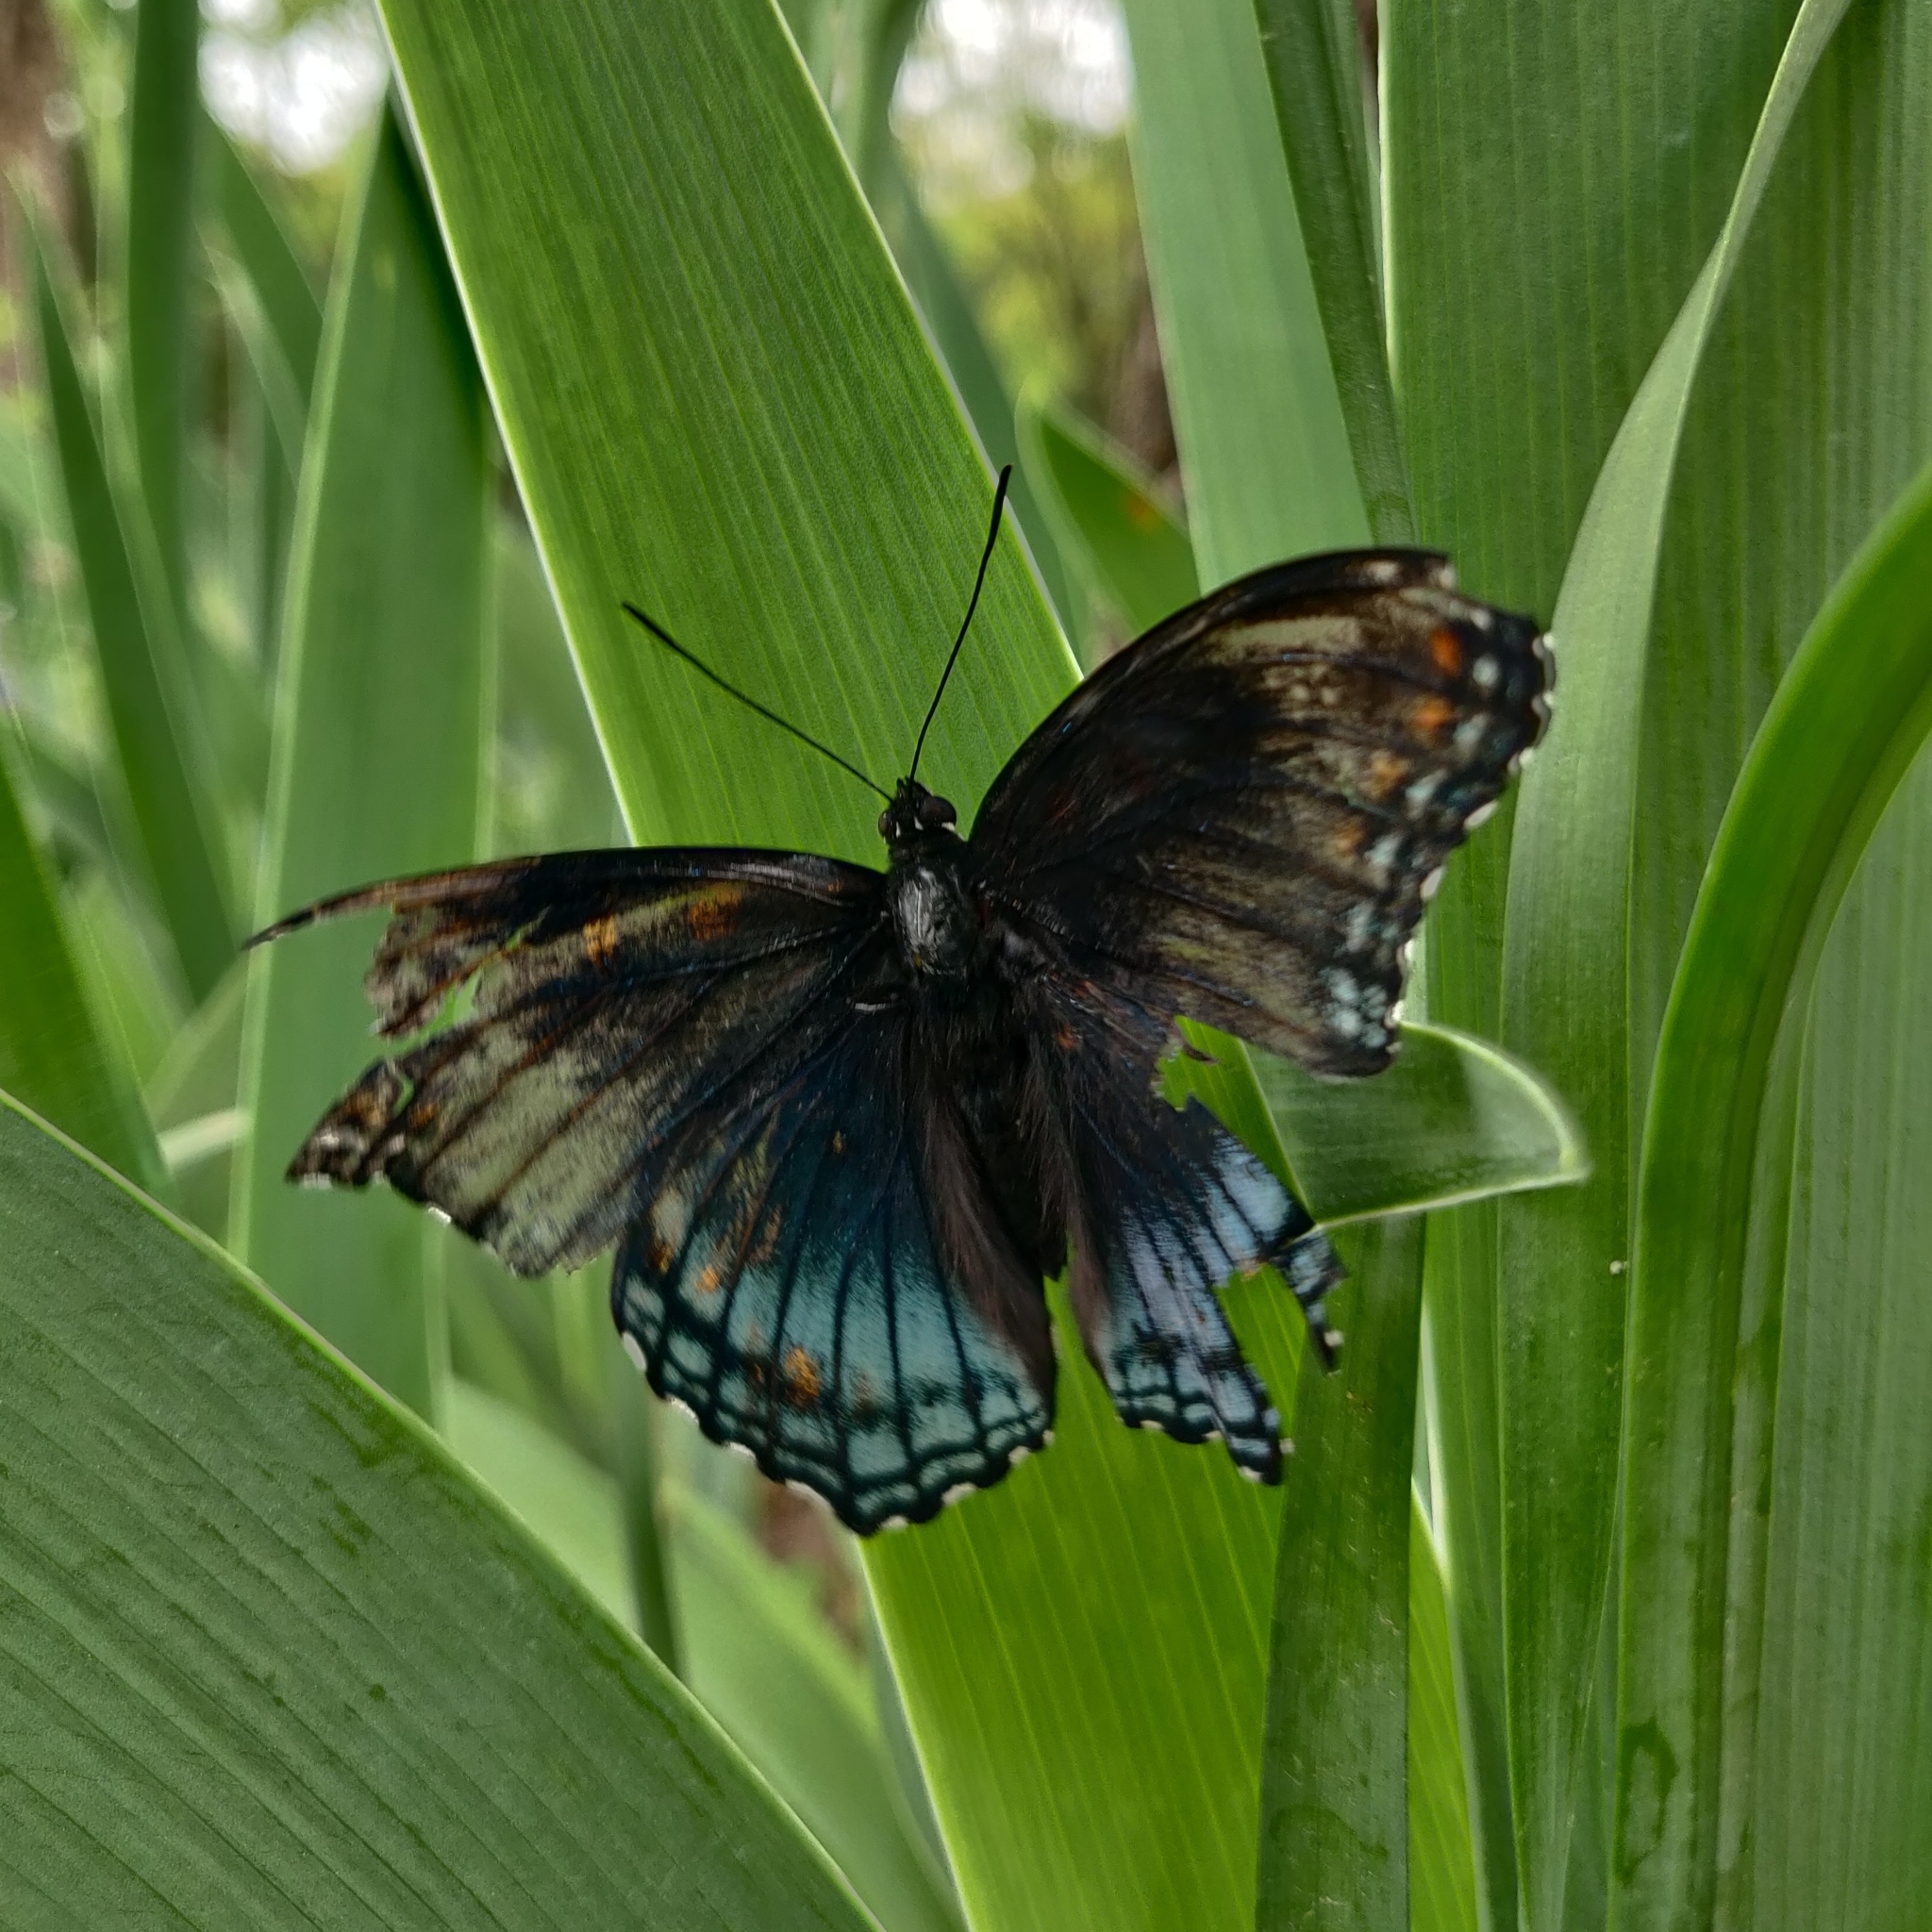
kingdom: Animalia
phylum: Arthropoda
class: Insecta
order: Lepidoptera
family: Nymphalidae
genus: Limenitis
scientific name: Limenitis arthemis
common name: Red-spotted admiral
